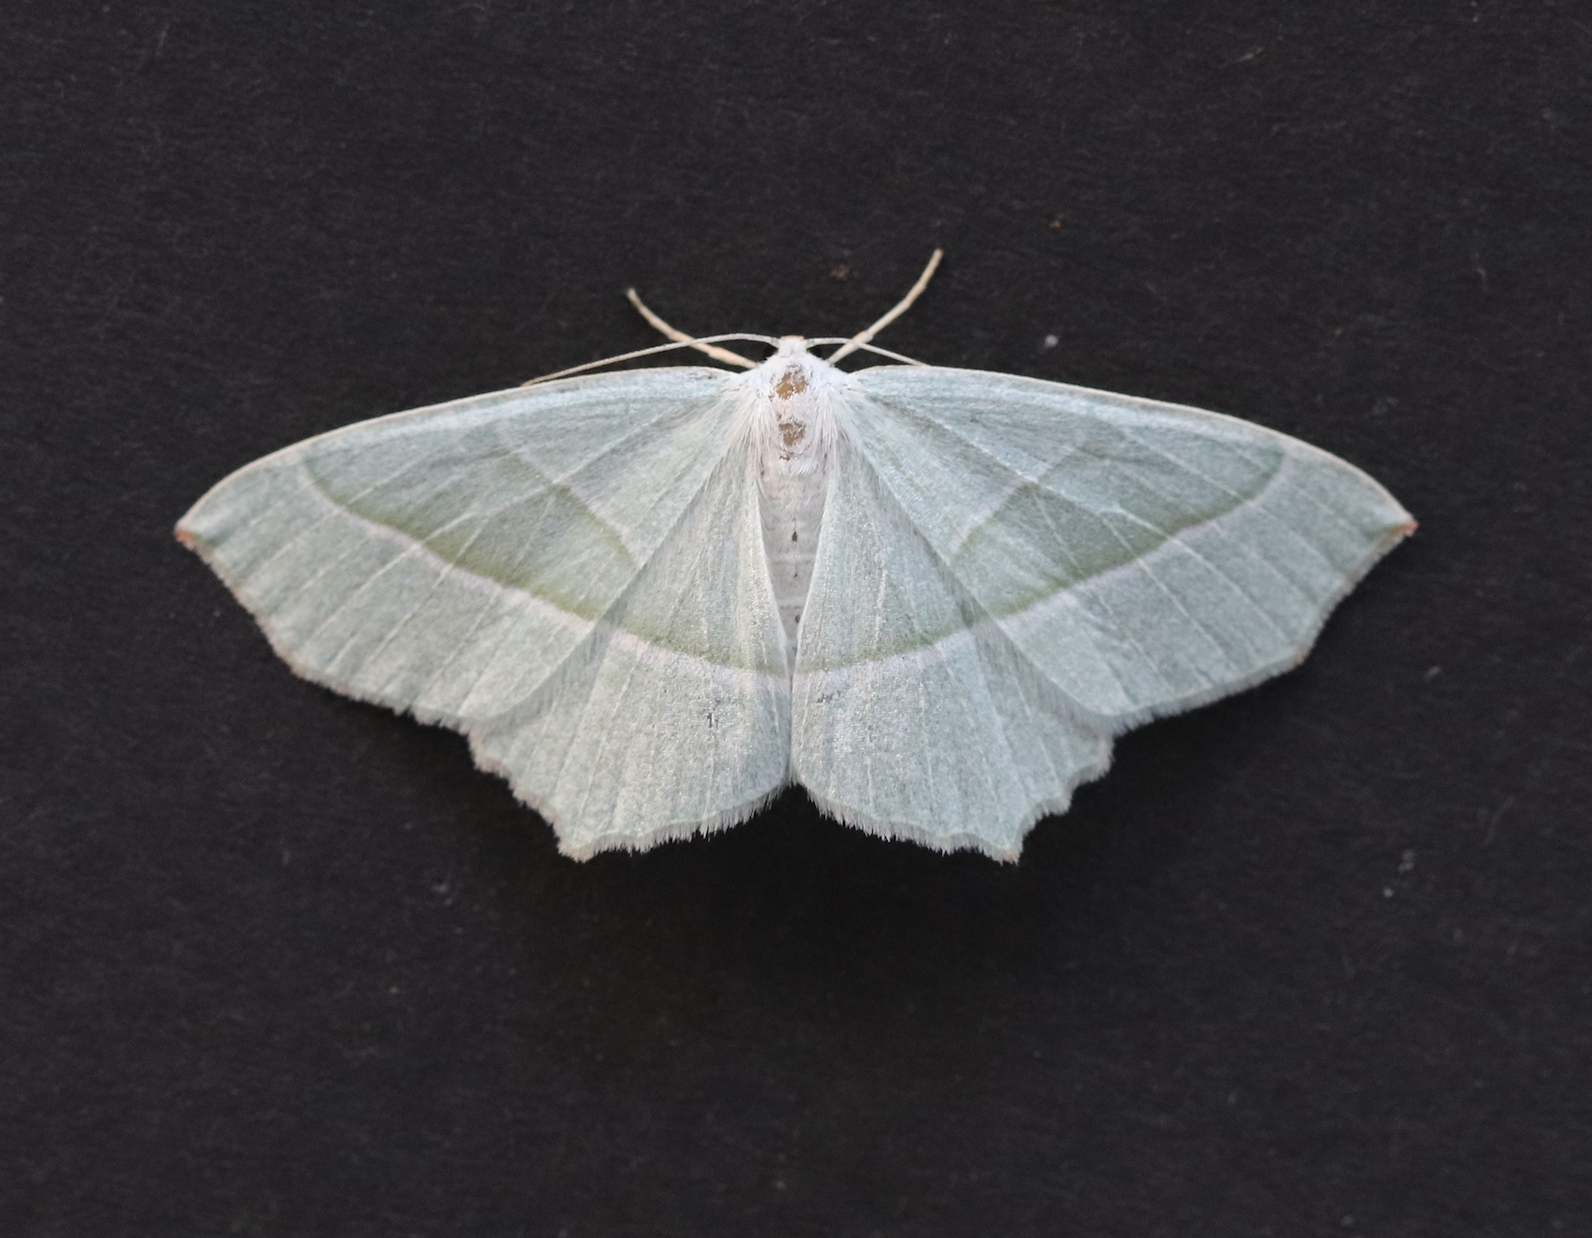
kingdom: Animalia
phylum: Arthropoda
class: Insecta
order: Lepidoptera
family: Geometridae
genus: Campaea
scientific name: Campaea margaritaria
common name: Light emerald
